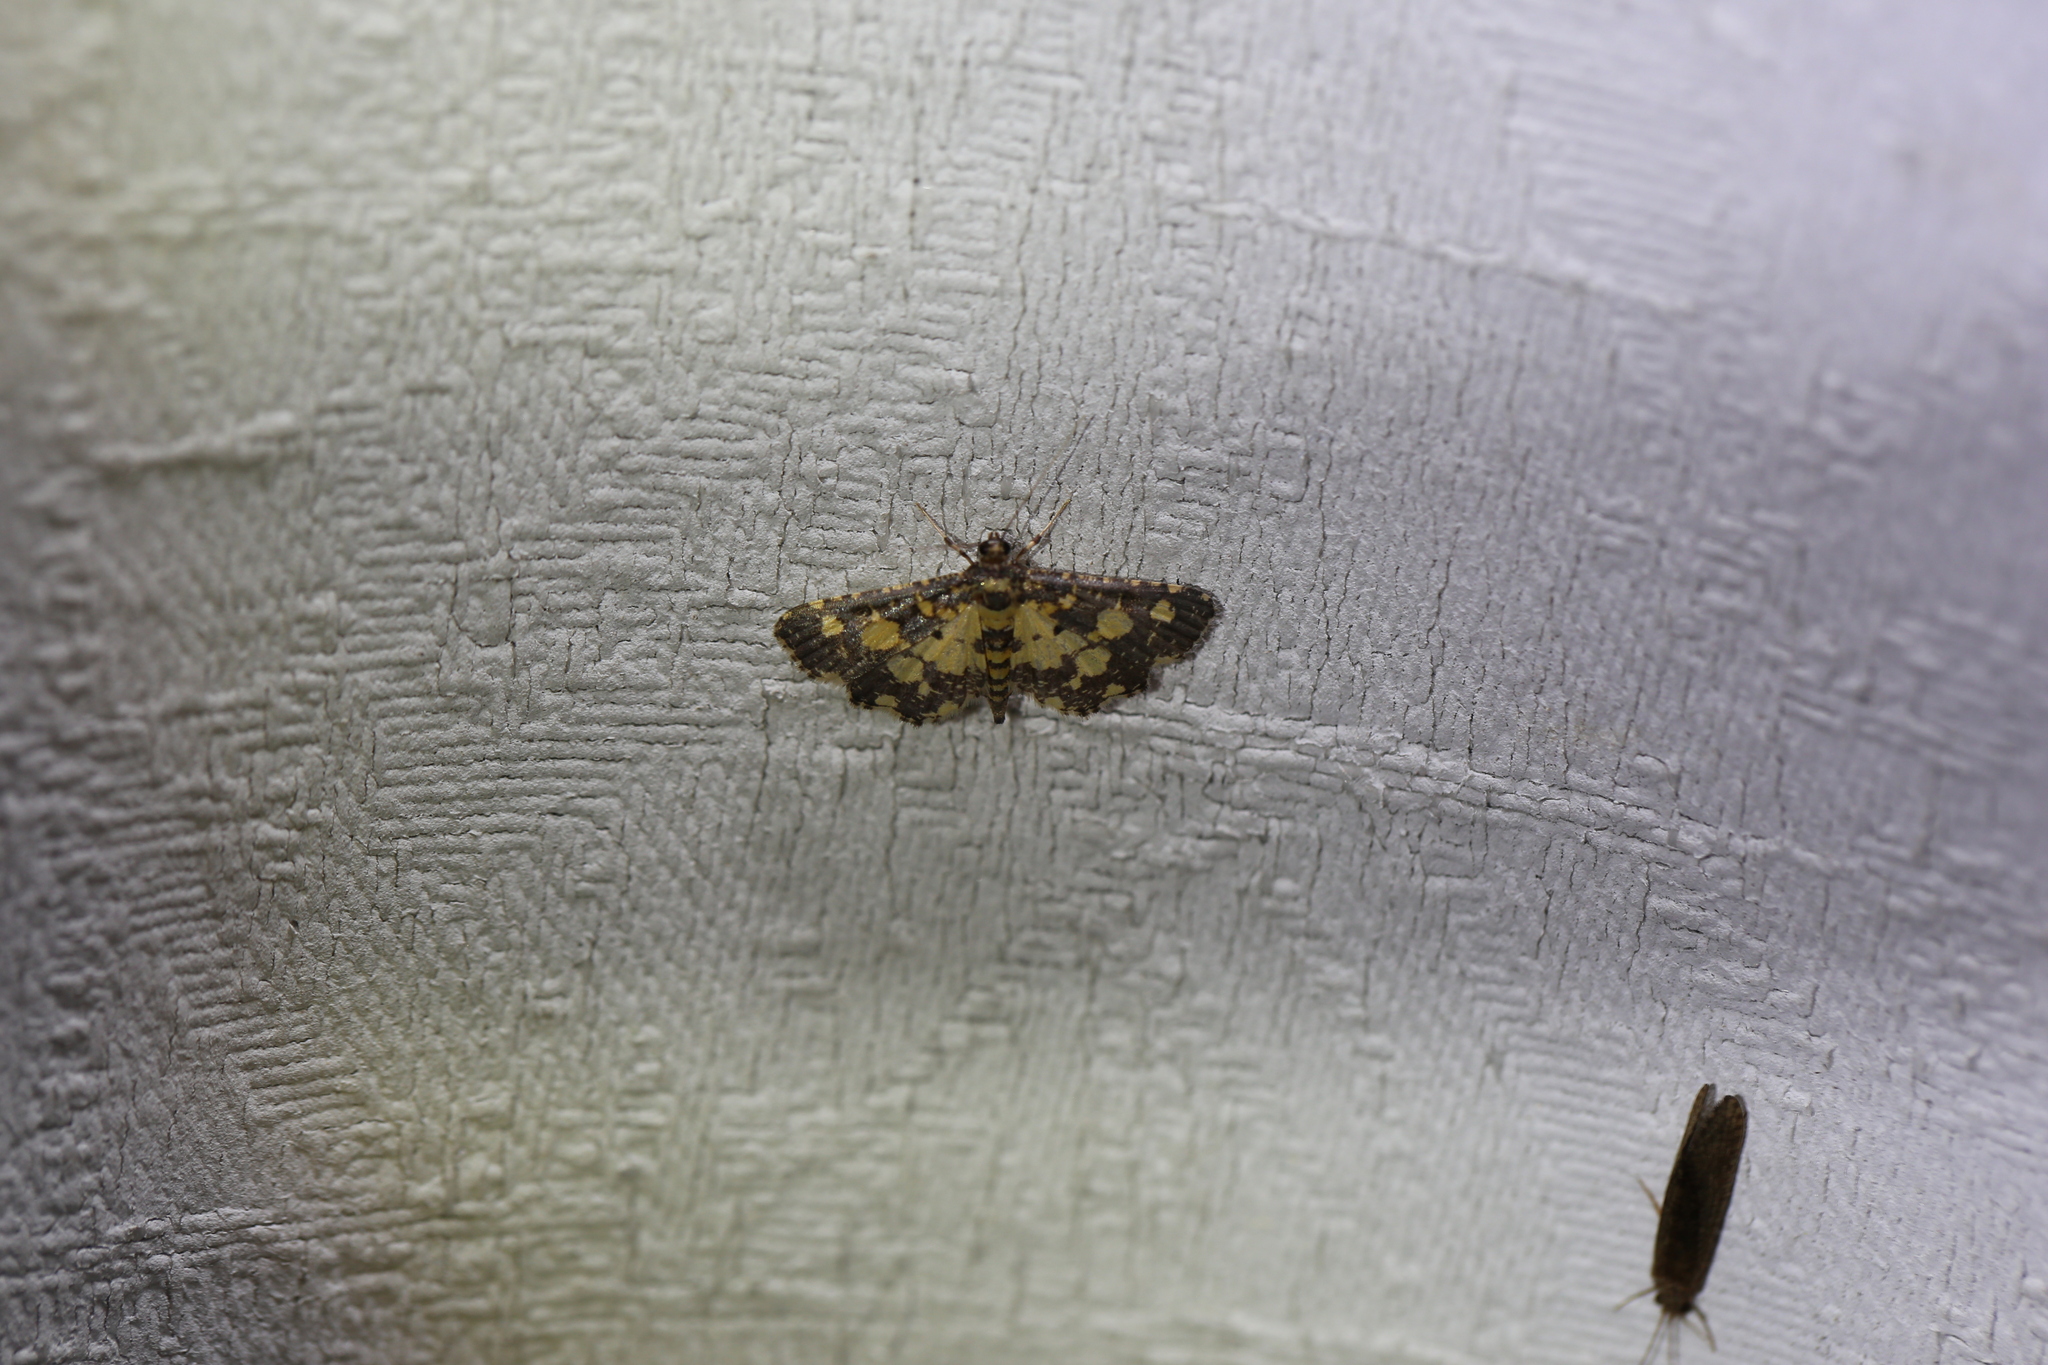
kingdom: Animalia
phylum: Arthropoda
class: Insecta
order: Lepidoptera
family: Crambidae
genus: Eurrhyparodes
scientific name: Eurrhyparodes bracteolalis
